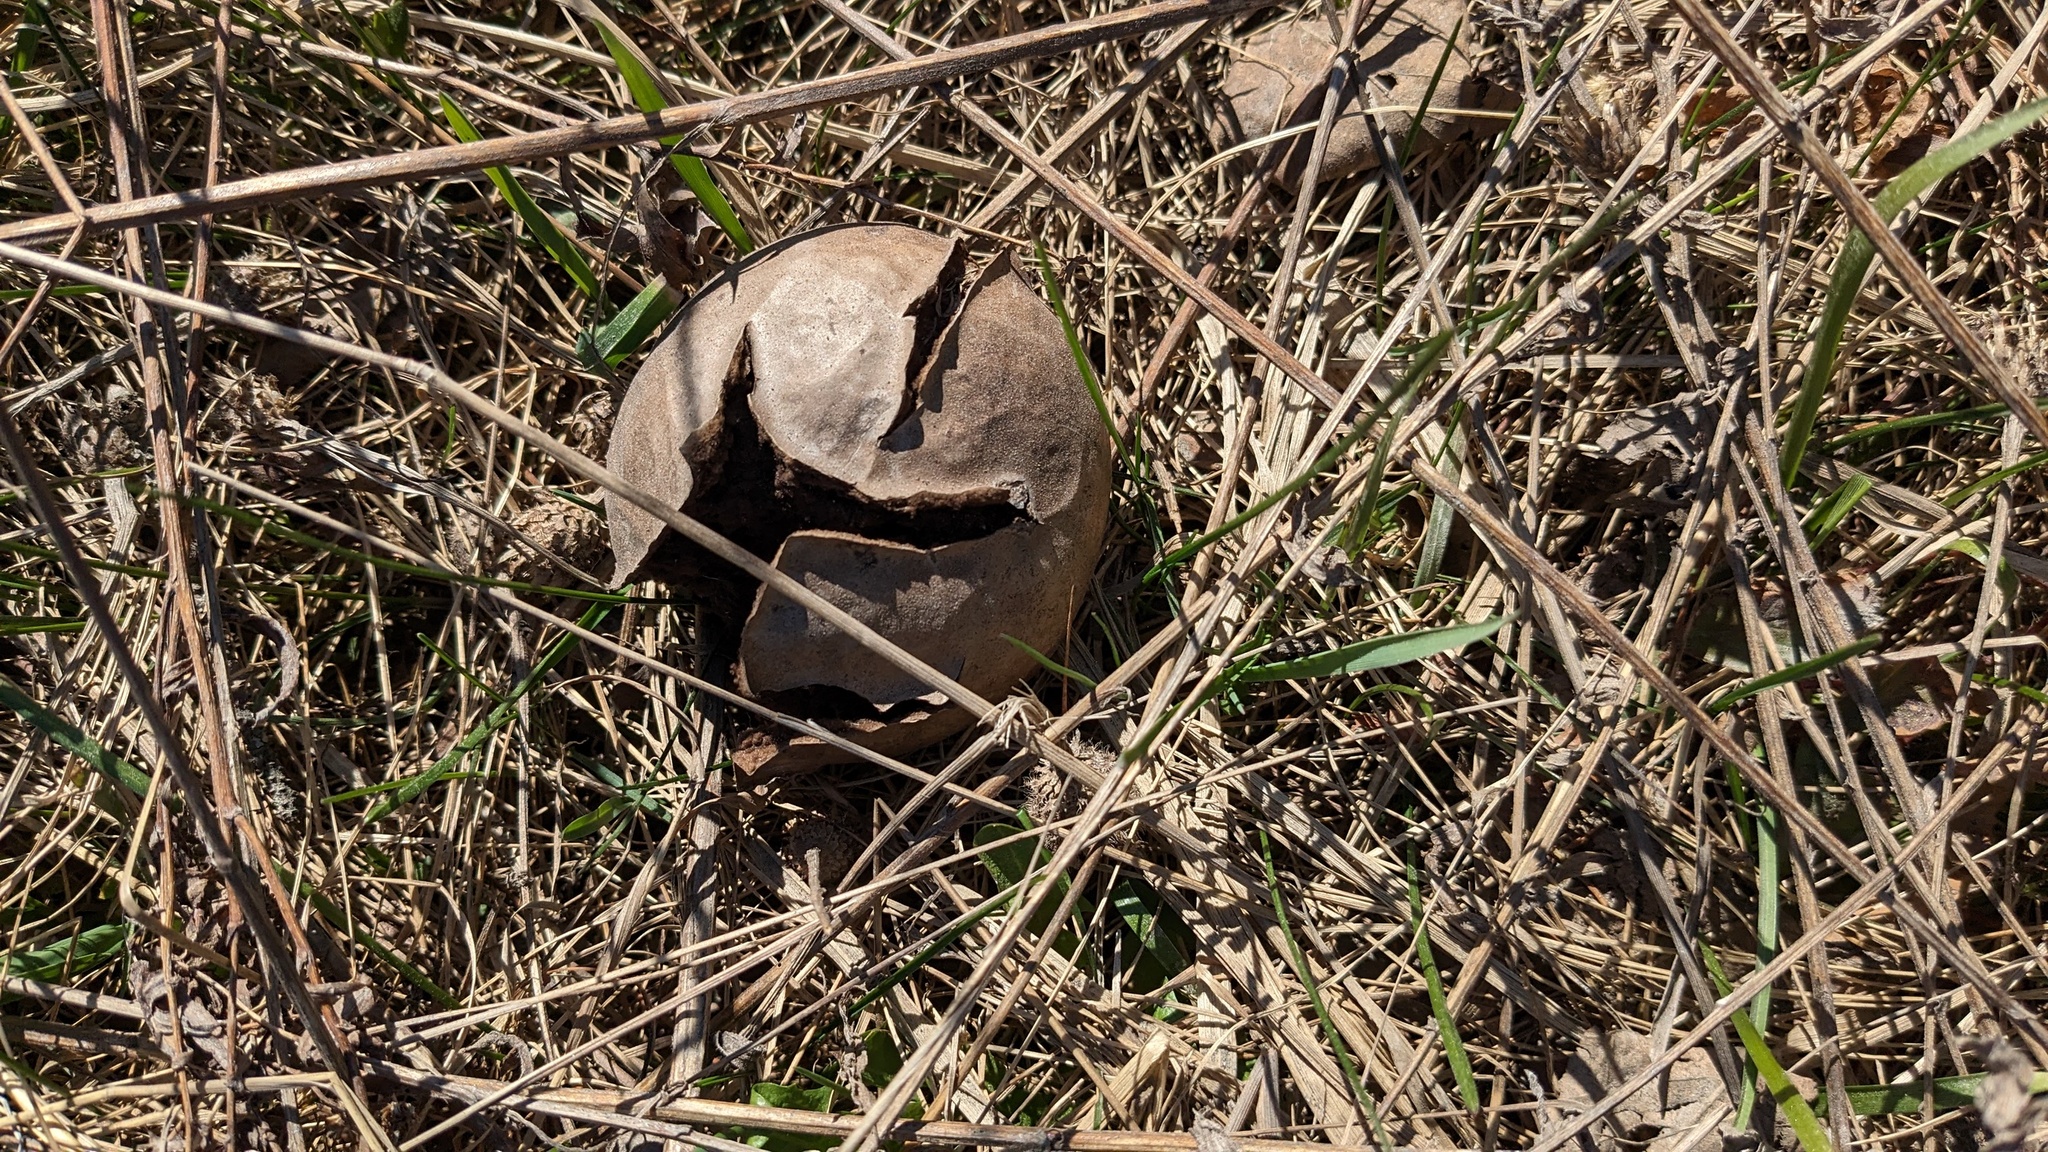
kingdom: Fungi
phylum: Basidiomycota
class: Agaricomycetes
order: Agaricales
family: Lycoperdaceae
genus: Lycoperdon
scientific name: Lycoperdon perlatum
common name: Common puffball
